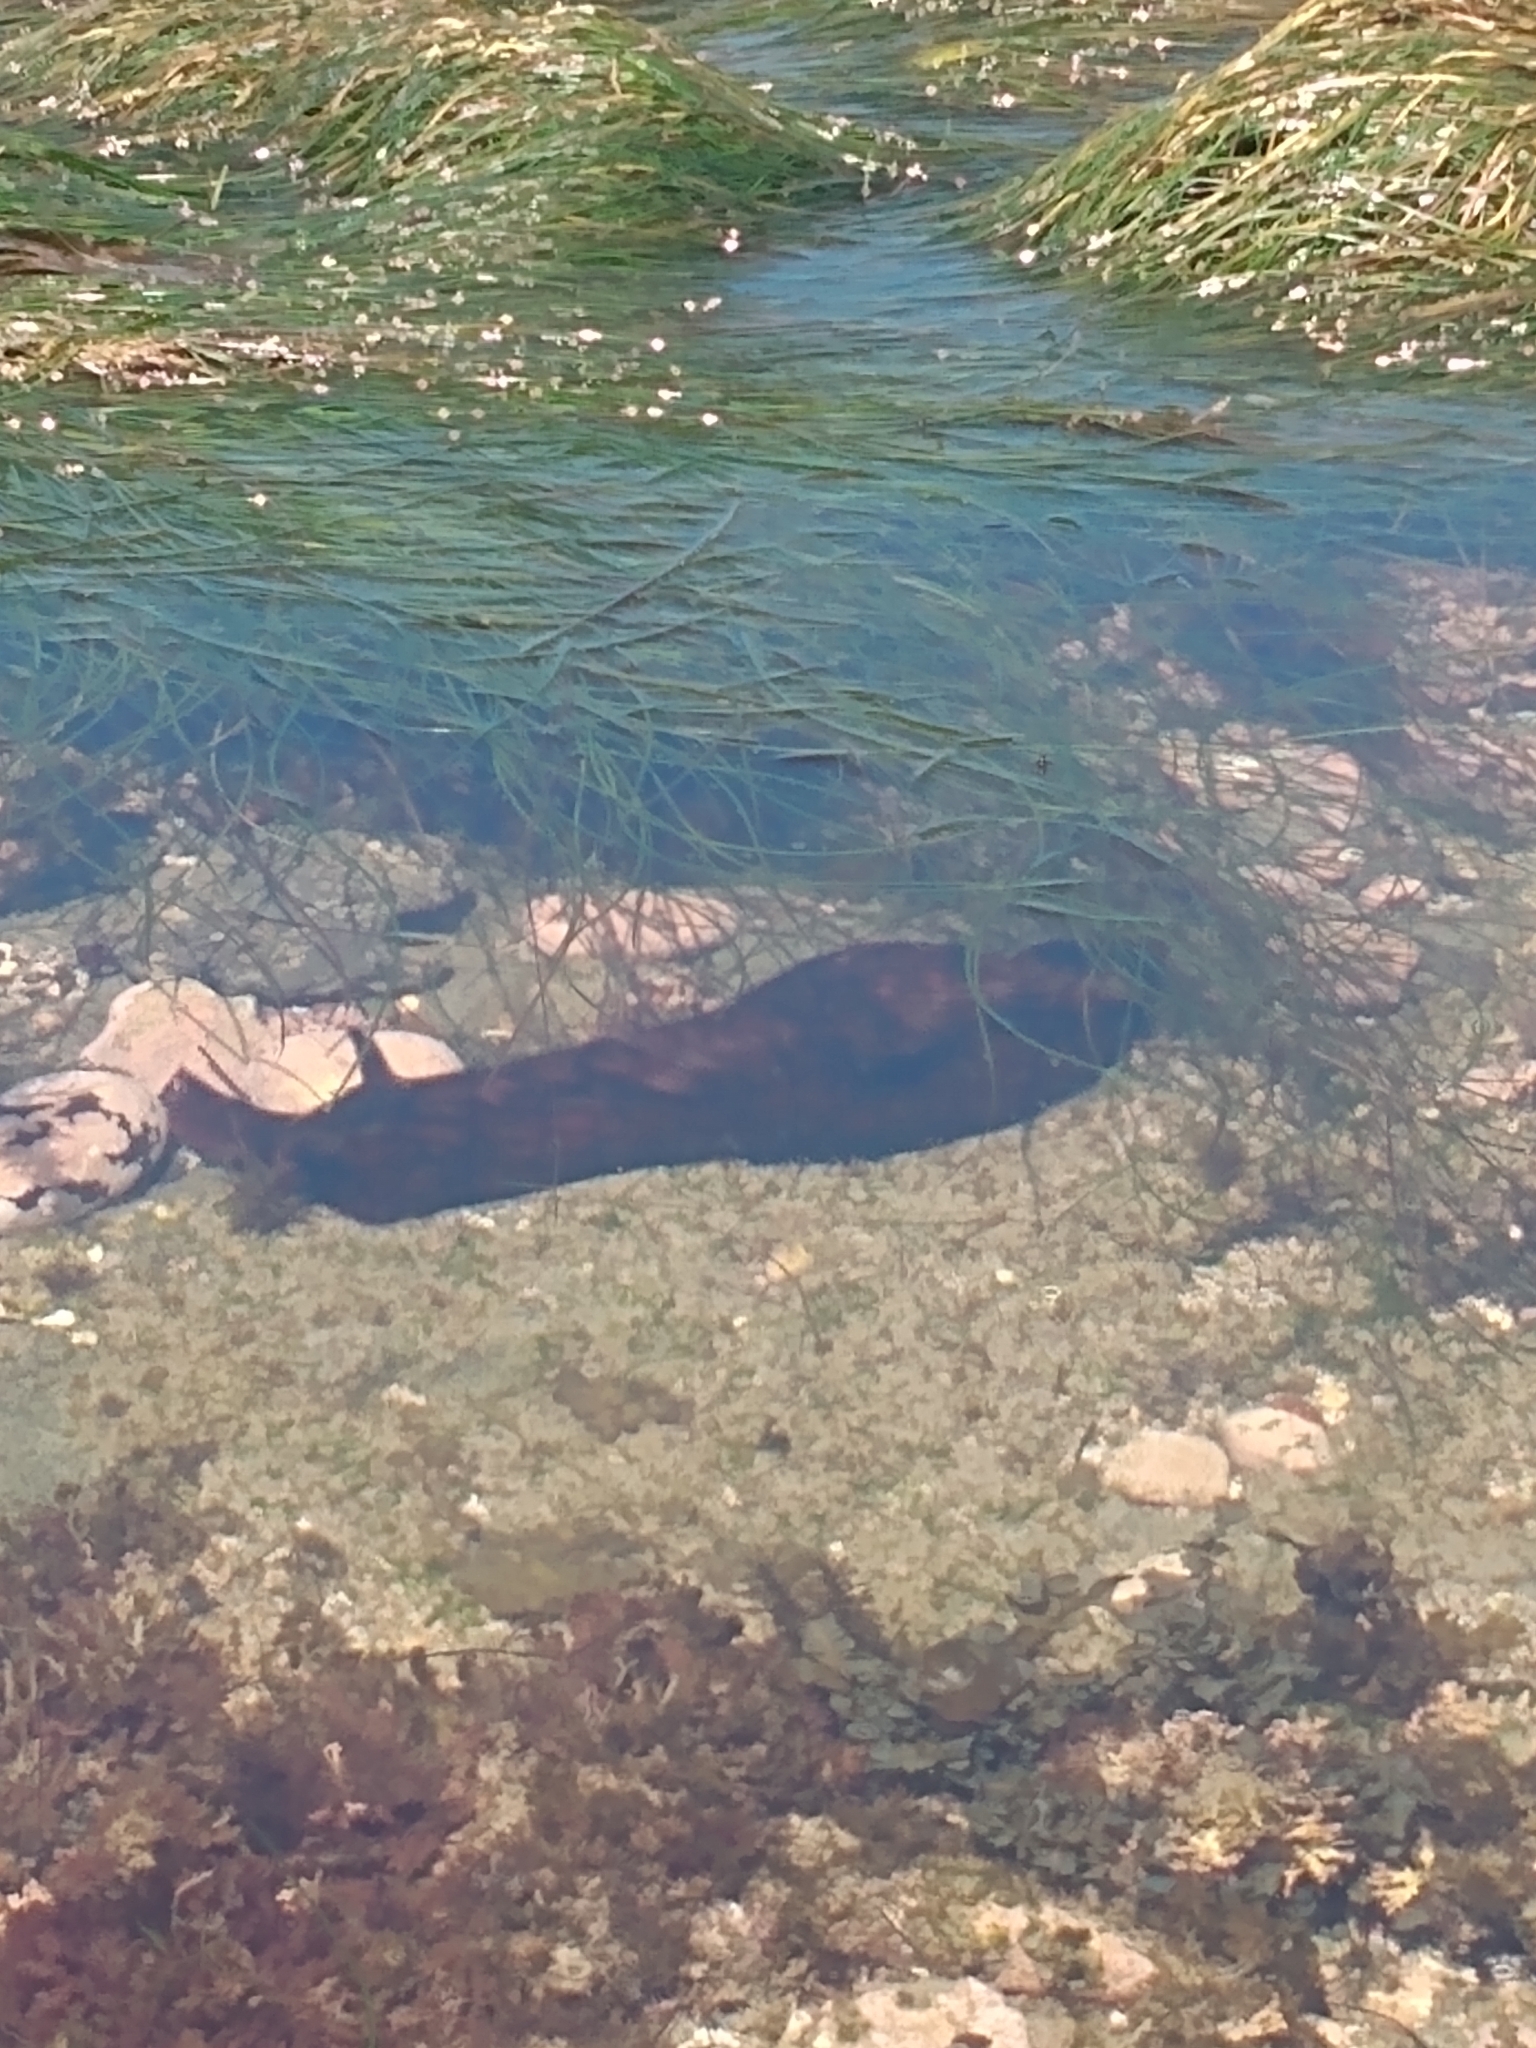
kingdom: Animalia
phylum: Mollusca
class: Gastropoda
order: Aplysiida
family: Aplysiidae
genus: Aplysia
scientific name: Aplysia californica
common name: California seahare
